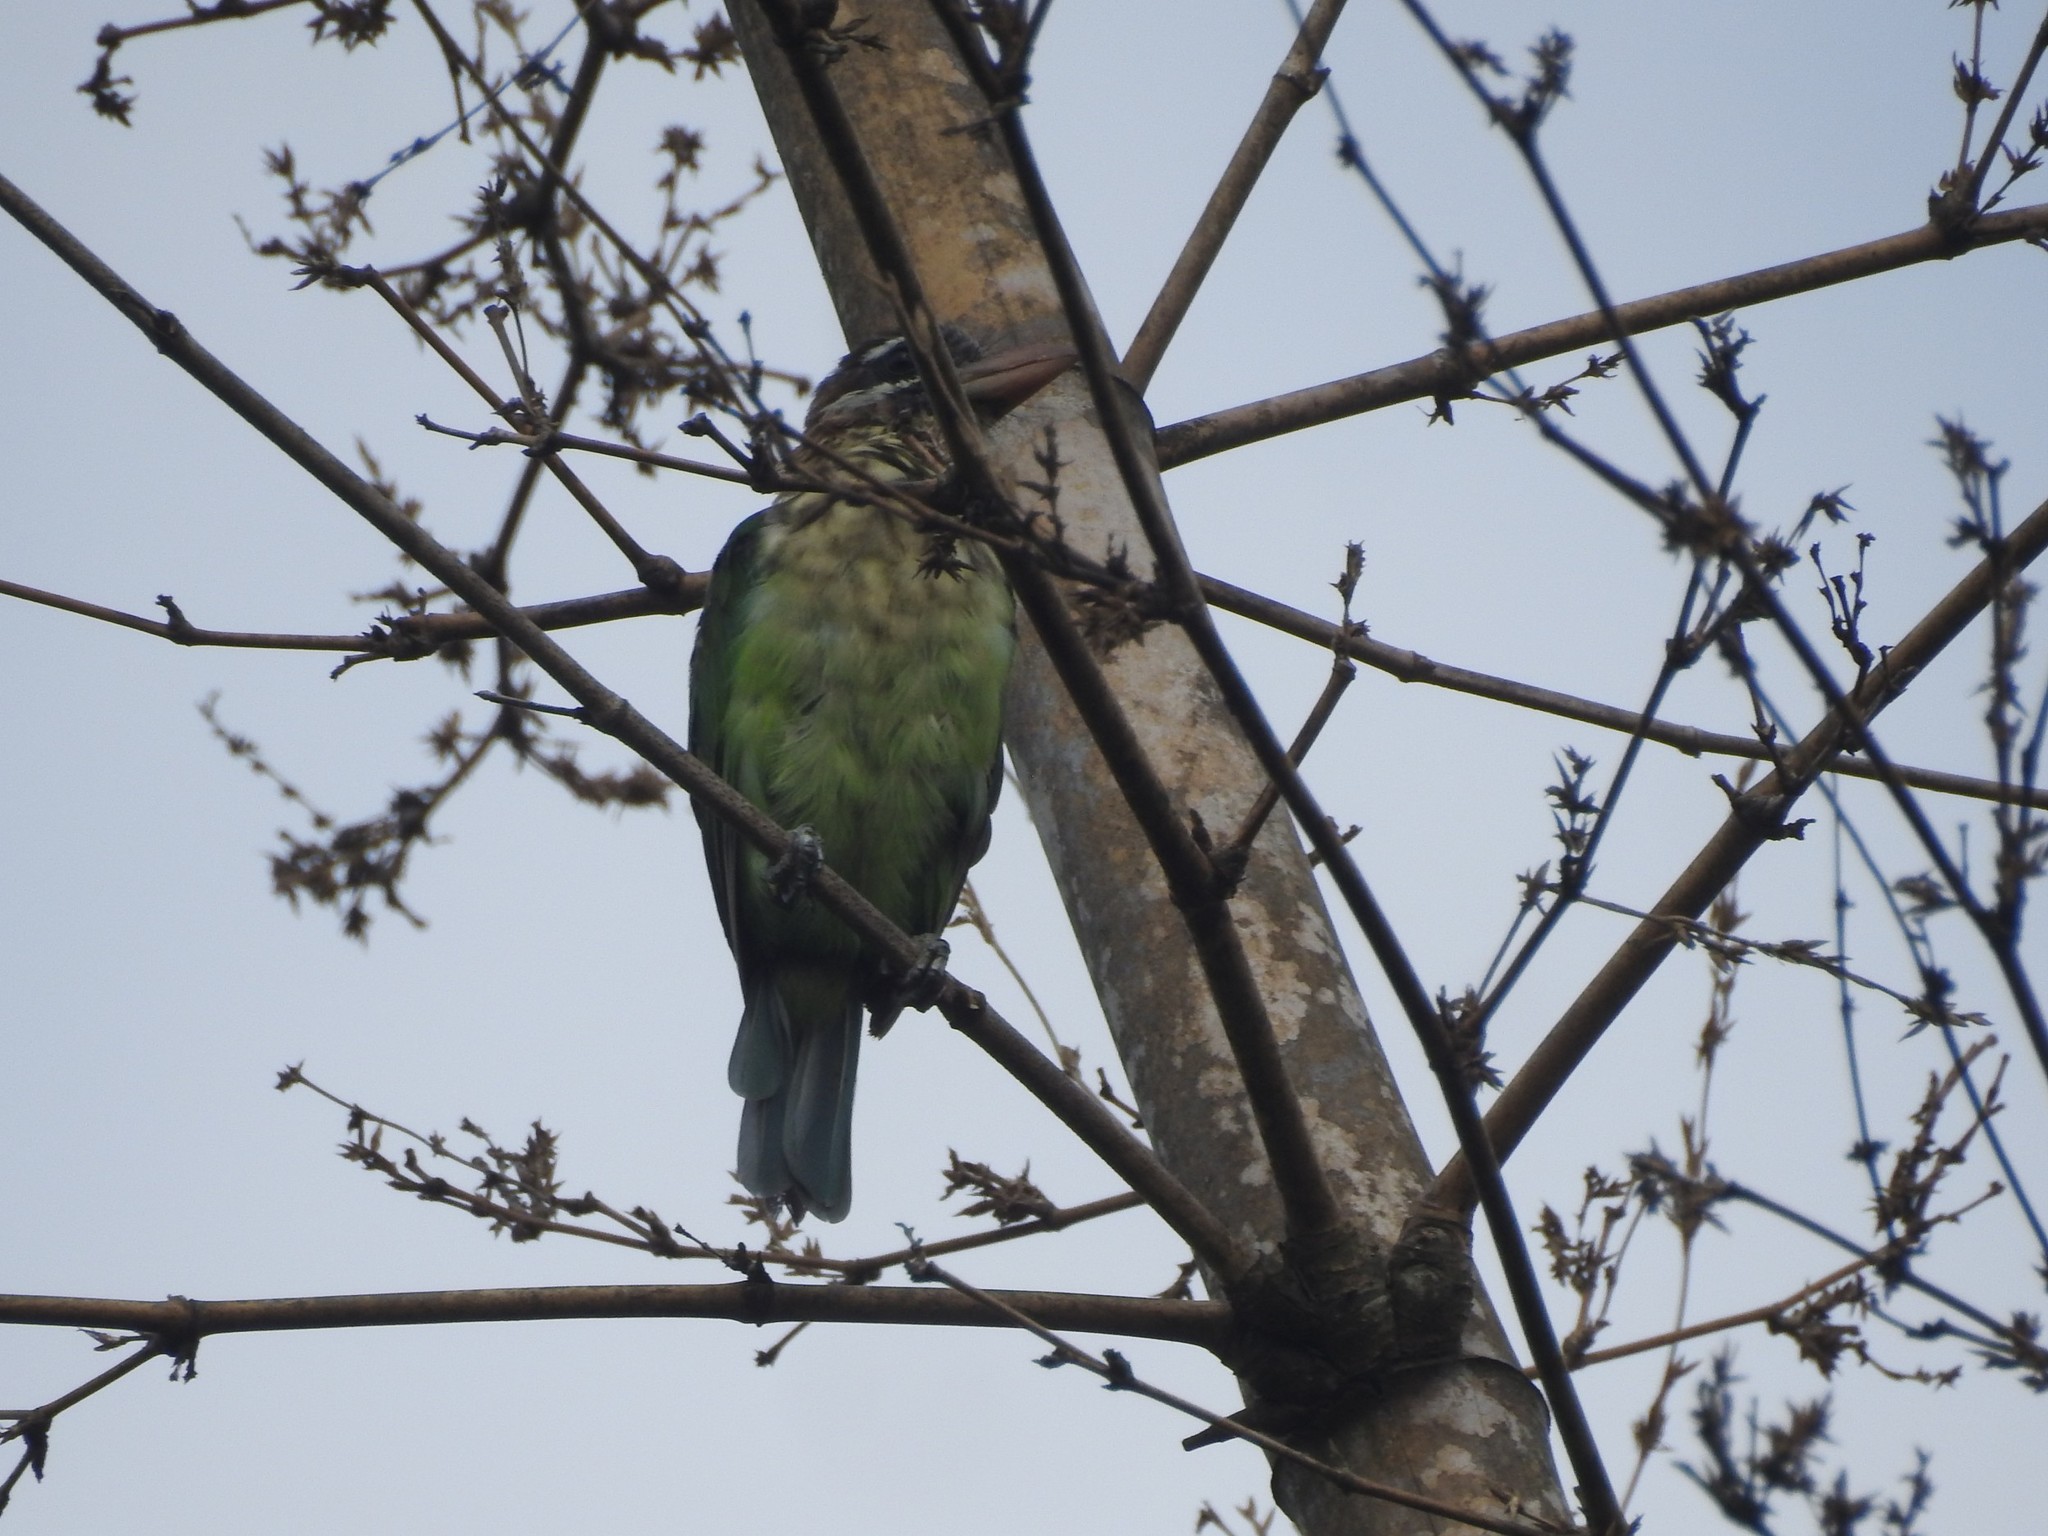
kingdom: Animalia
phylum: Chordata
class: Aves
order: Piciformes
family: Megalaimidae
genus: Psilopogon
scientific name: Psilopogon viridis
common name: White-cheeked barbet
